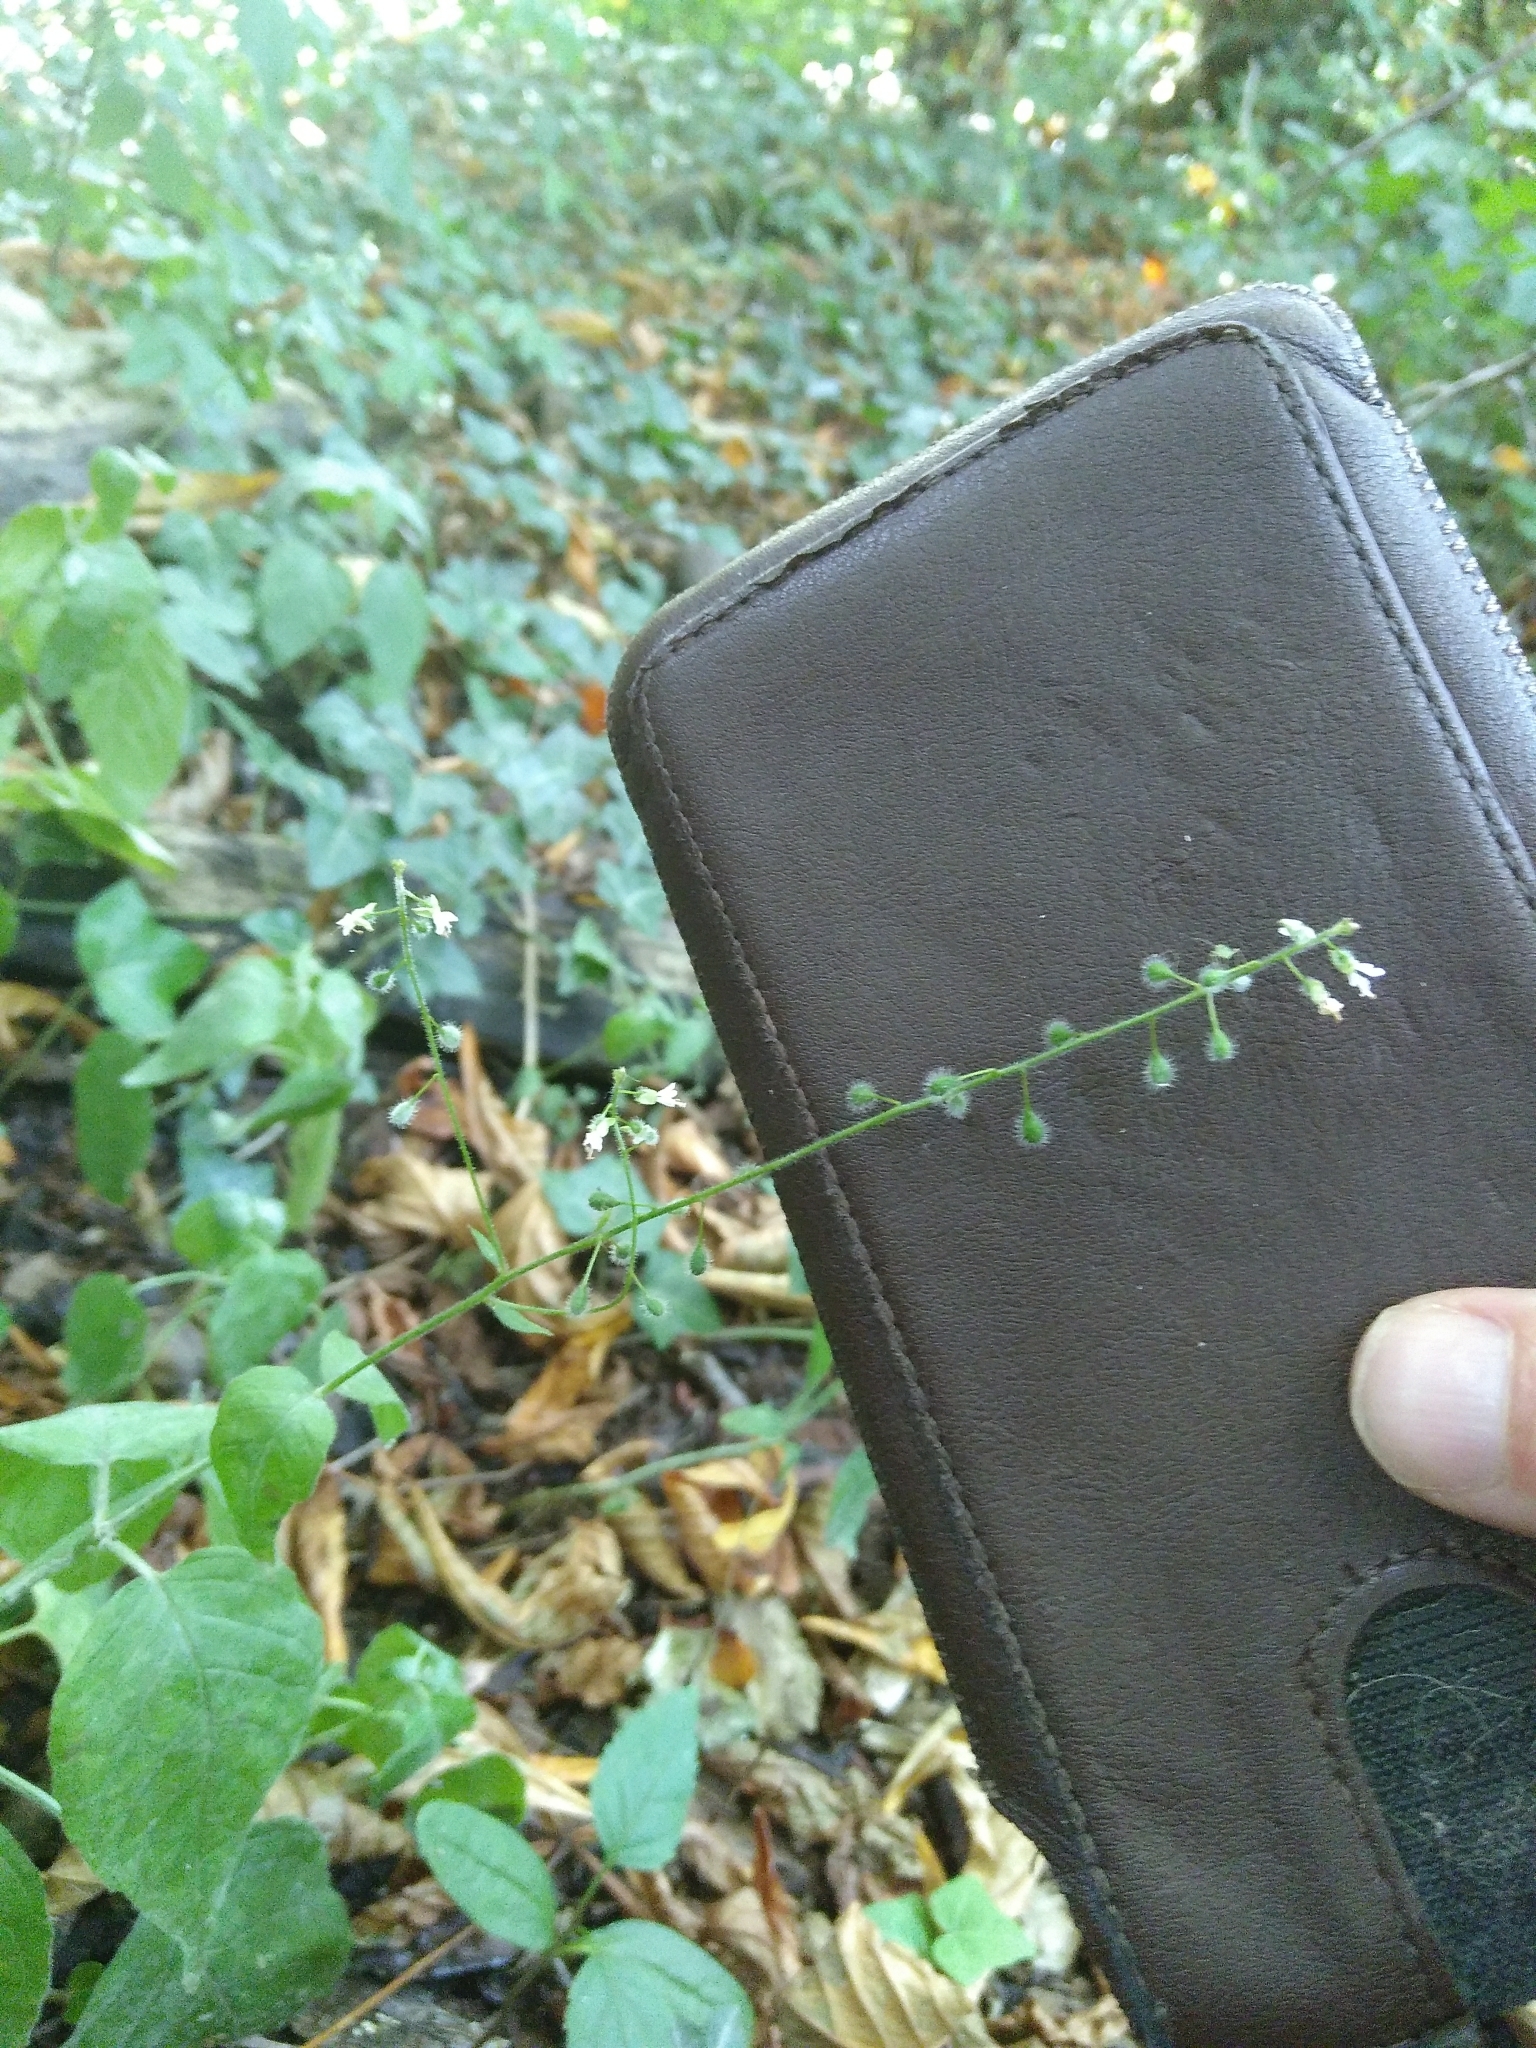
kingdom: Plantae
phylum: Tracheophyta
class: Magnoliopsida
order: Myrtales
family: Onagraceae
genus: Circaea
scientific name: Circaea lutetiana
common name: Enchanter's-nightshade
